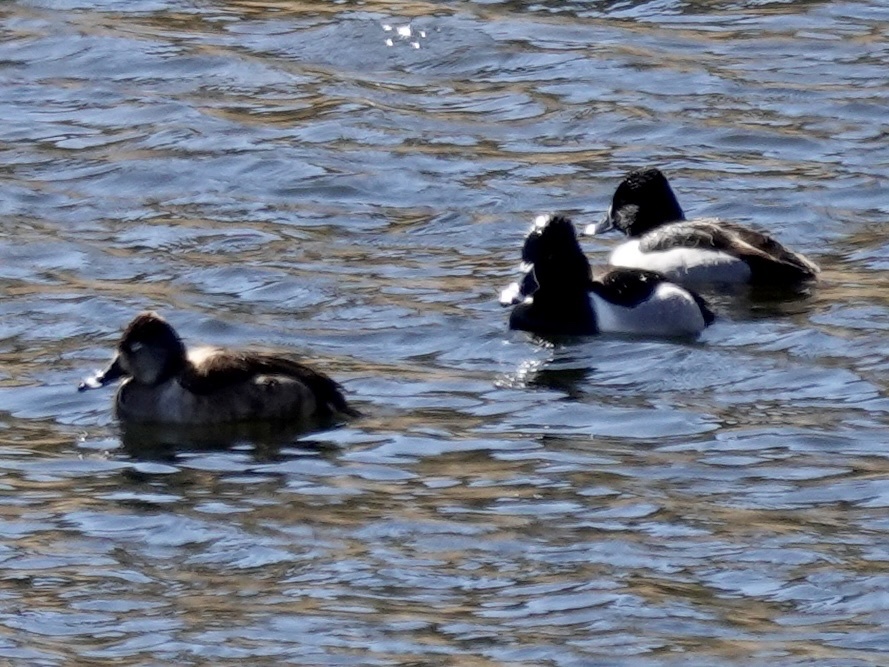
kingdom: Animalia
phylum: Chordata
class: Aves
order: Anseriformes
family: Anatidae
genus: Aythya
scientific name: Aythya collaris
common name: Ring-necked duck
